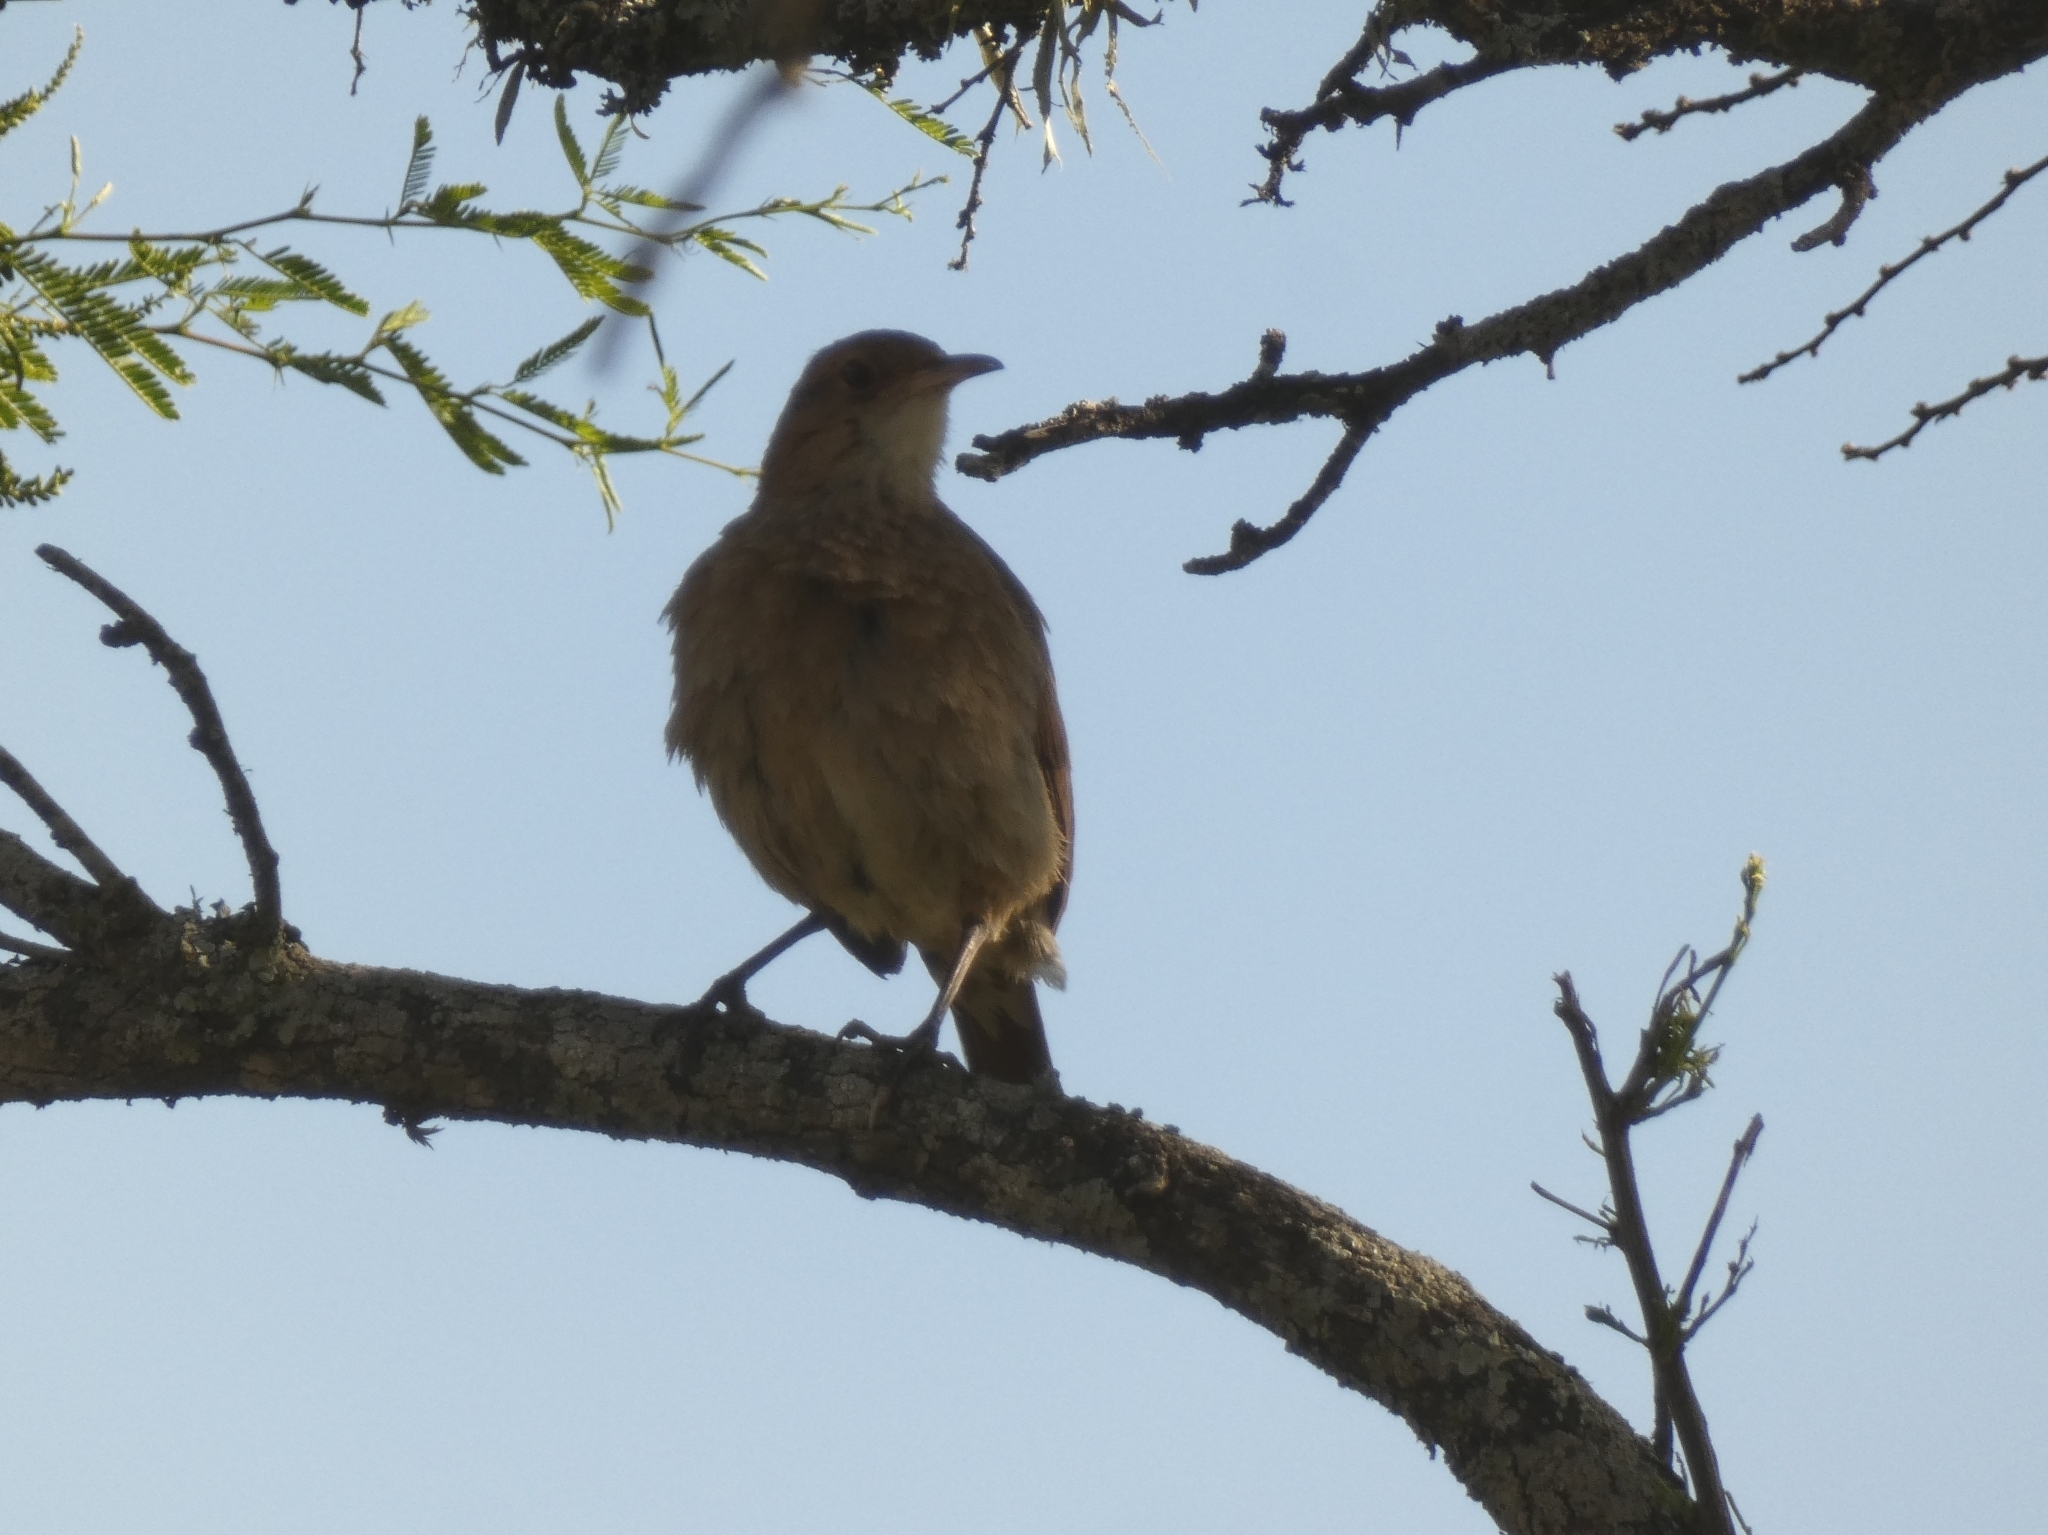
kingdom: Animalia
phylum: Chordata
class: Aves
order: Passeriformes
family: Furnariidae
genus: Furnarius
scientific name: Furnarius rufus
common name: Rufous hornero
